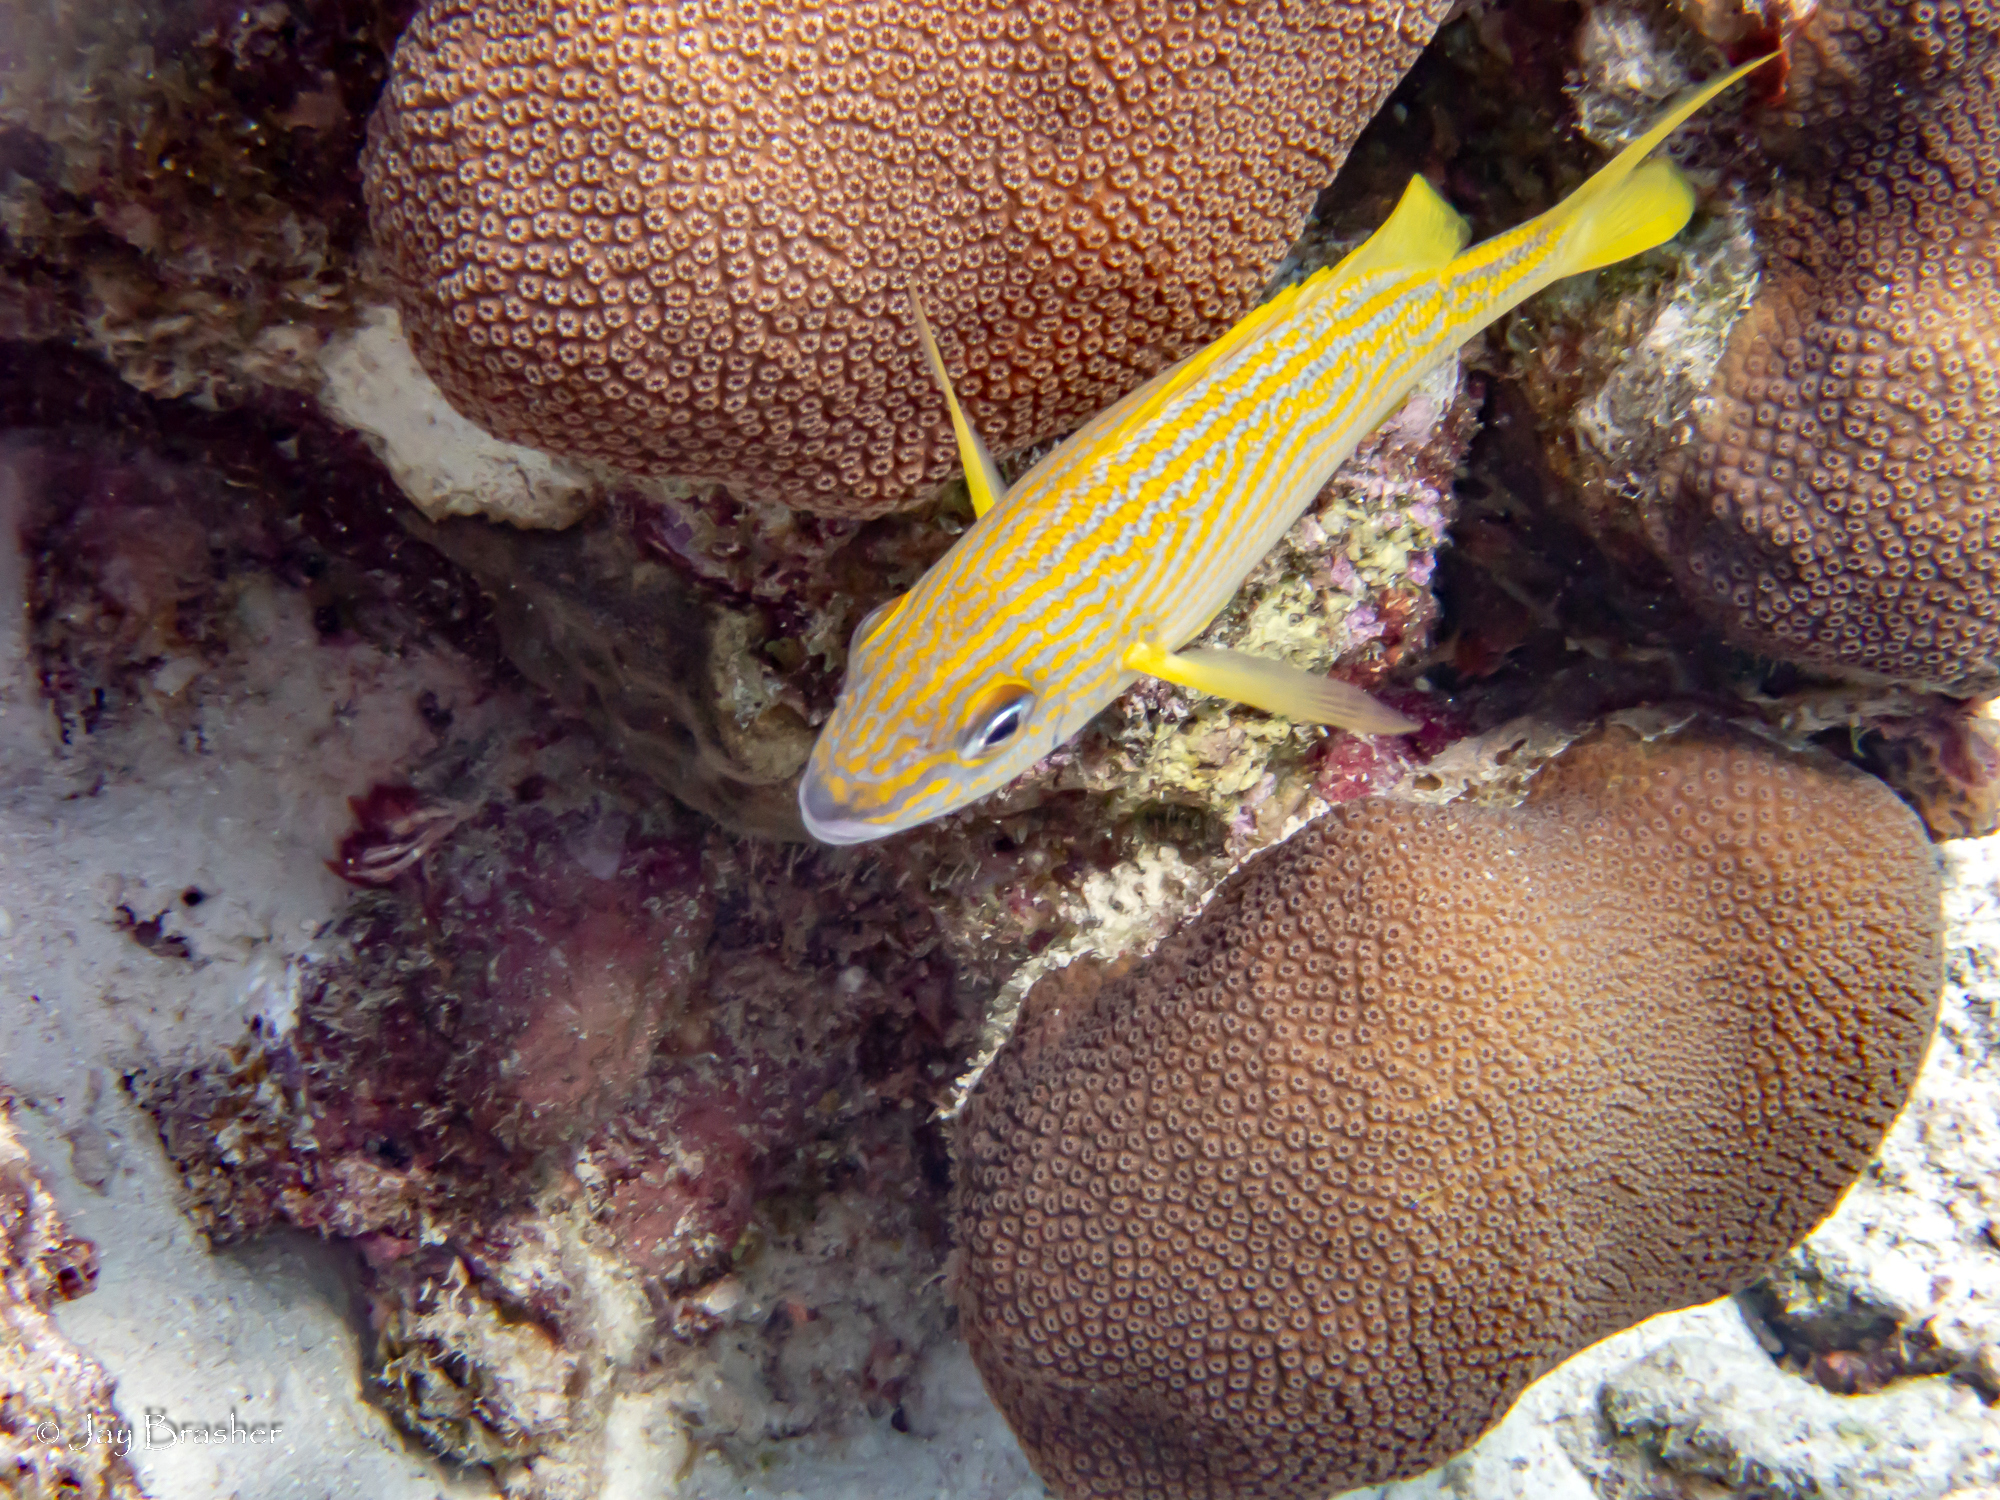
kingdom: Animalia
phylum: Chordata
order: Perciformes
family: Haemulidae
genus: Haemulon
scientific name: Haemulon flavolineatum
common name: French grunt
